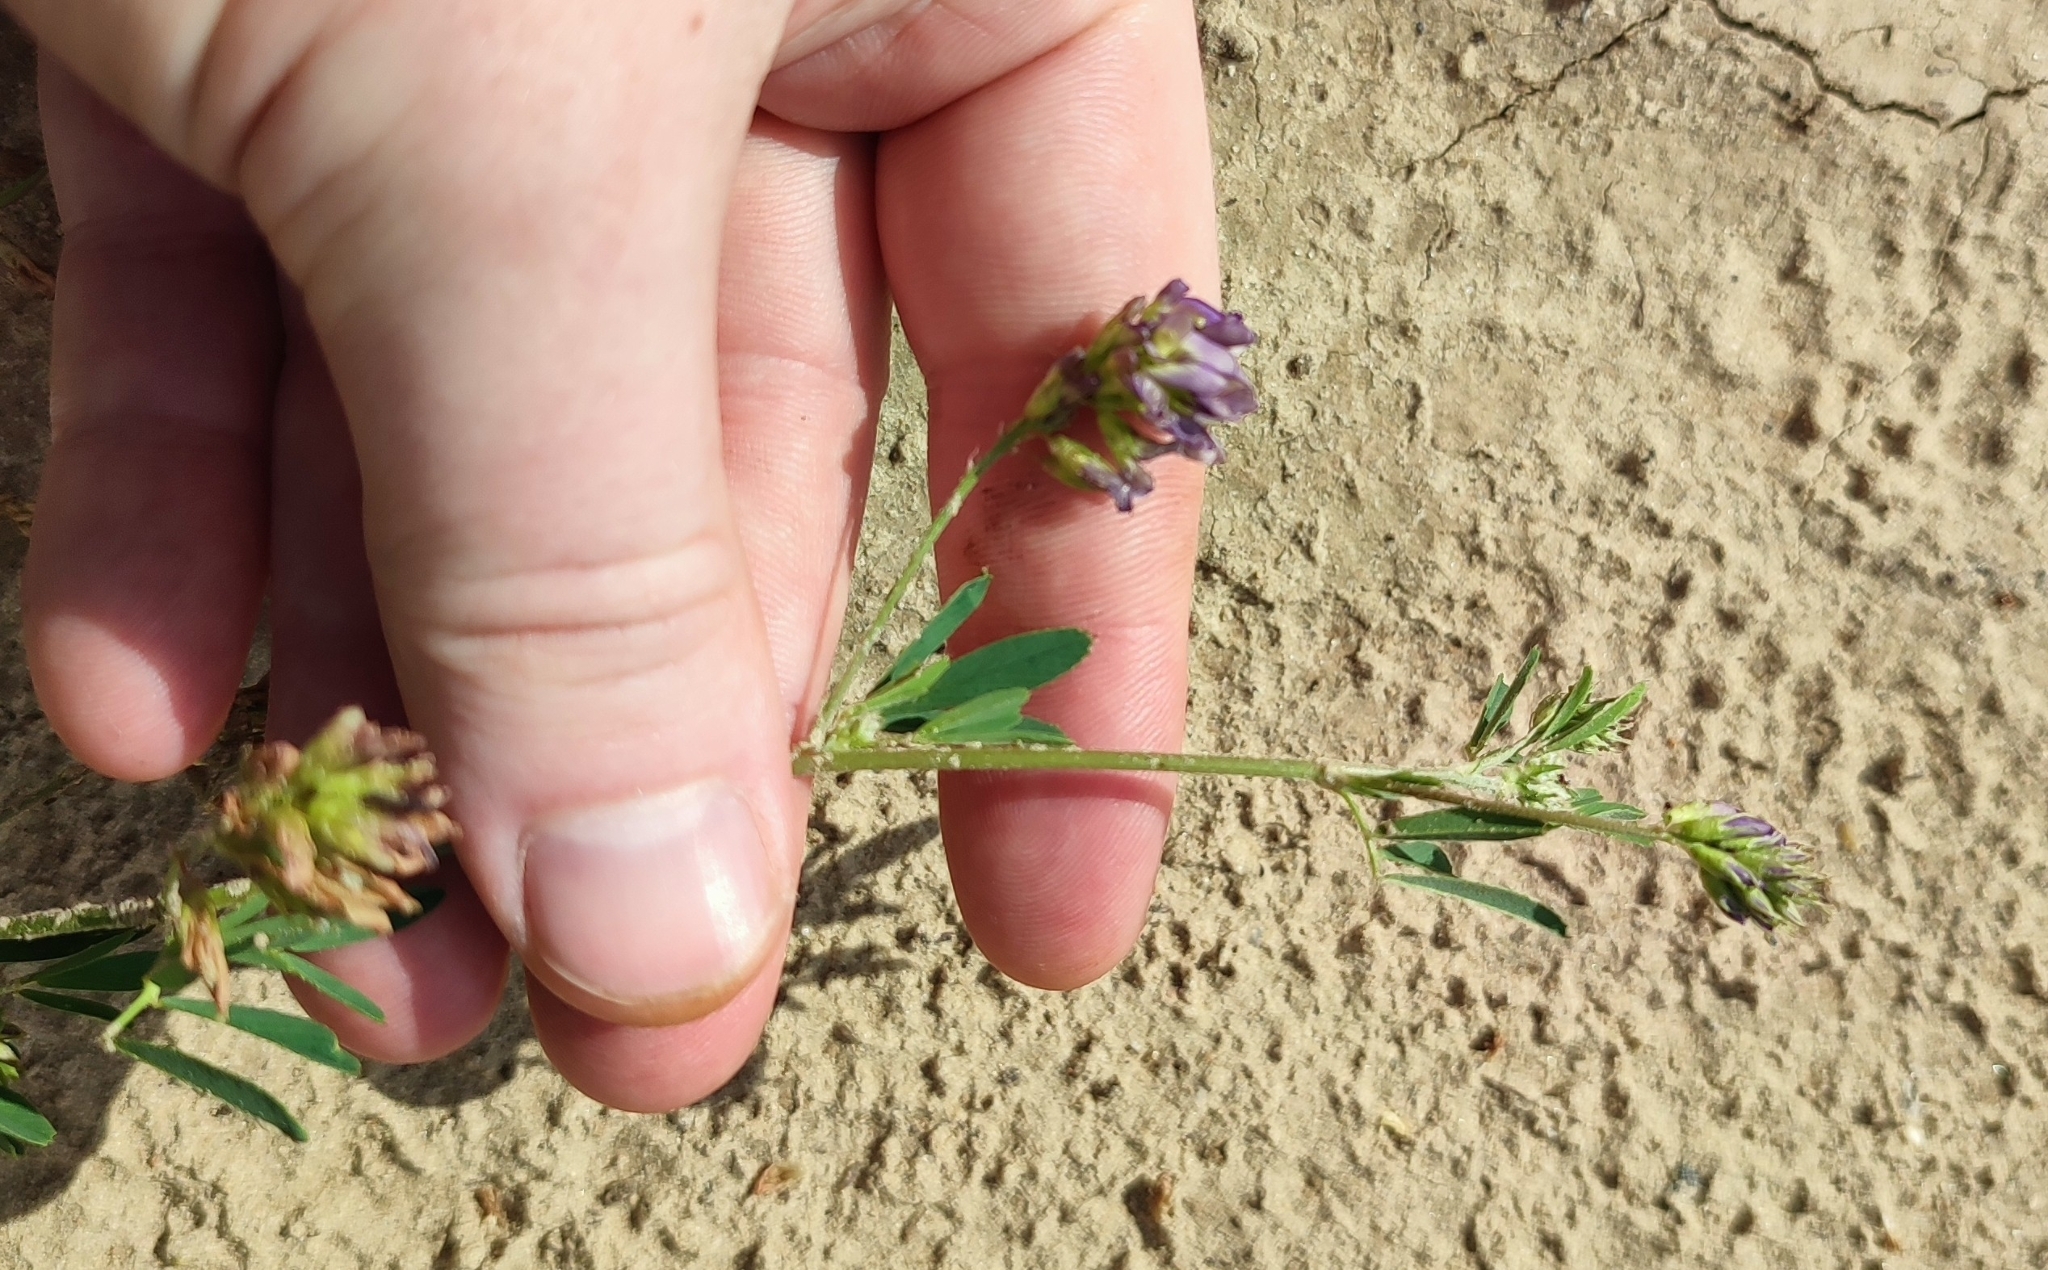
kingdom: Plantae
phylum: Tracheophyta
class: Magnoliopsida
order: Fabales
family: Fabaceae
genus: Medicago
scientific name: Medicago varia
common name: Sand lucerne
